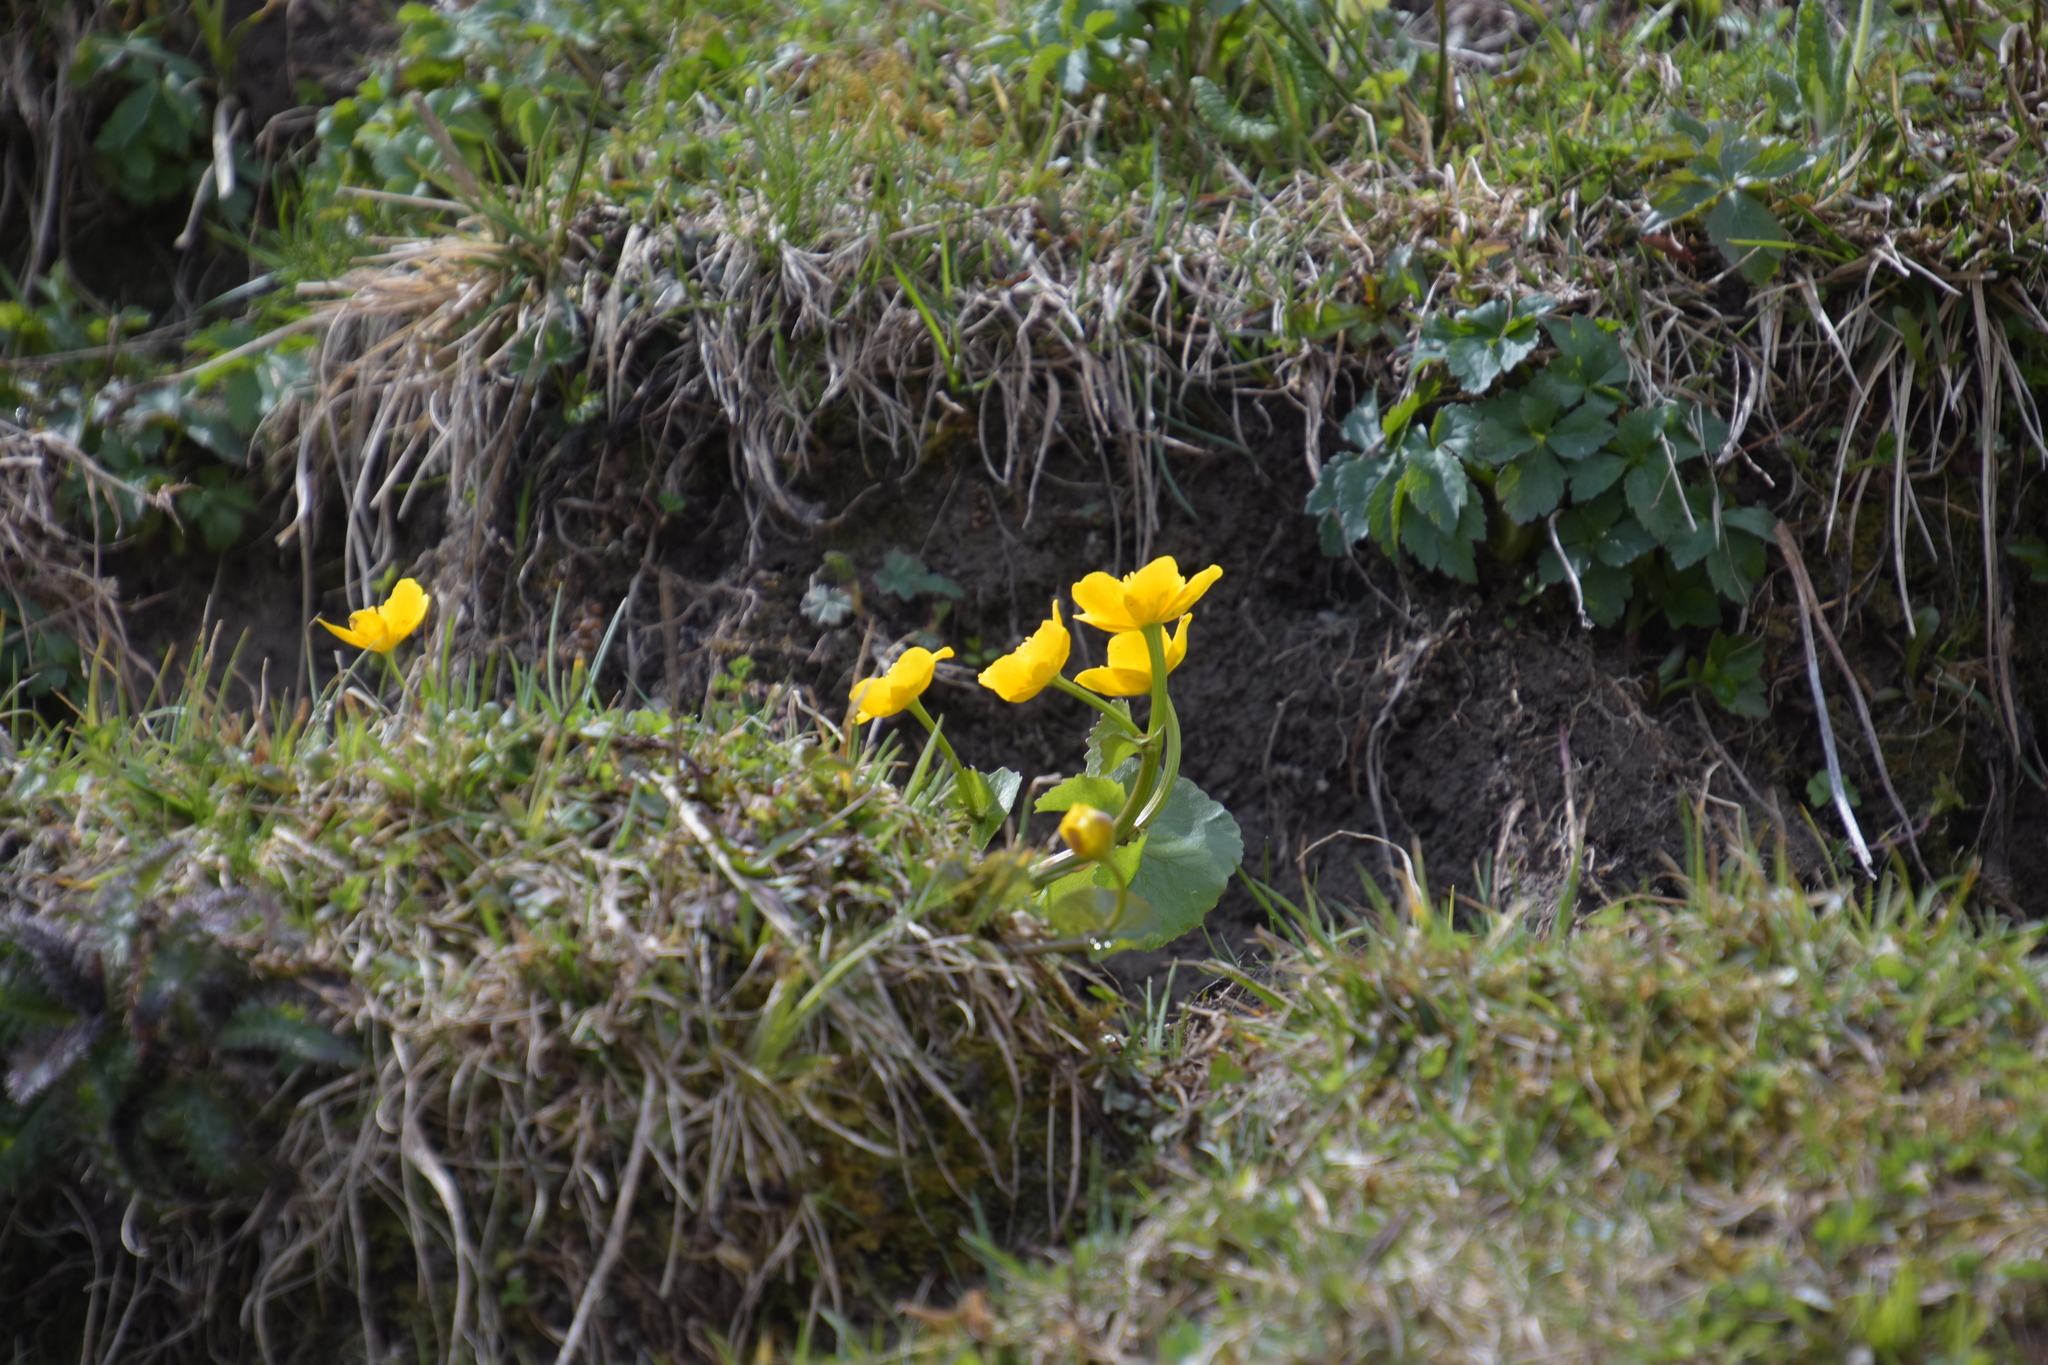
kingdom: Plantae
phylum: Tracheophyta
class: Magnoliopsida
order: Ranunculales
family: Ranunculaceae
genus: Caltha
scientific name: Caltha palustris
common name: Marsh marigold
